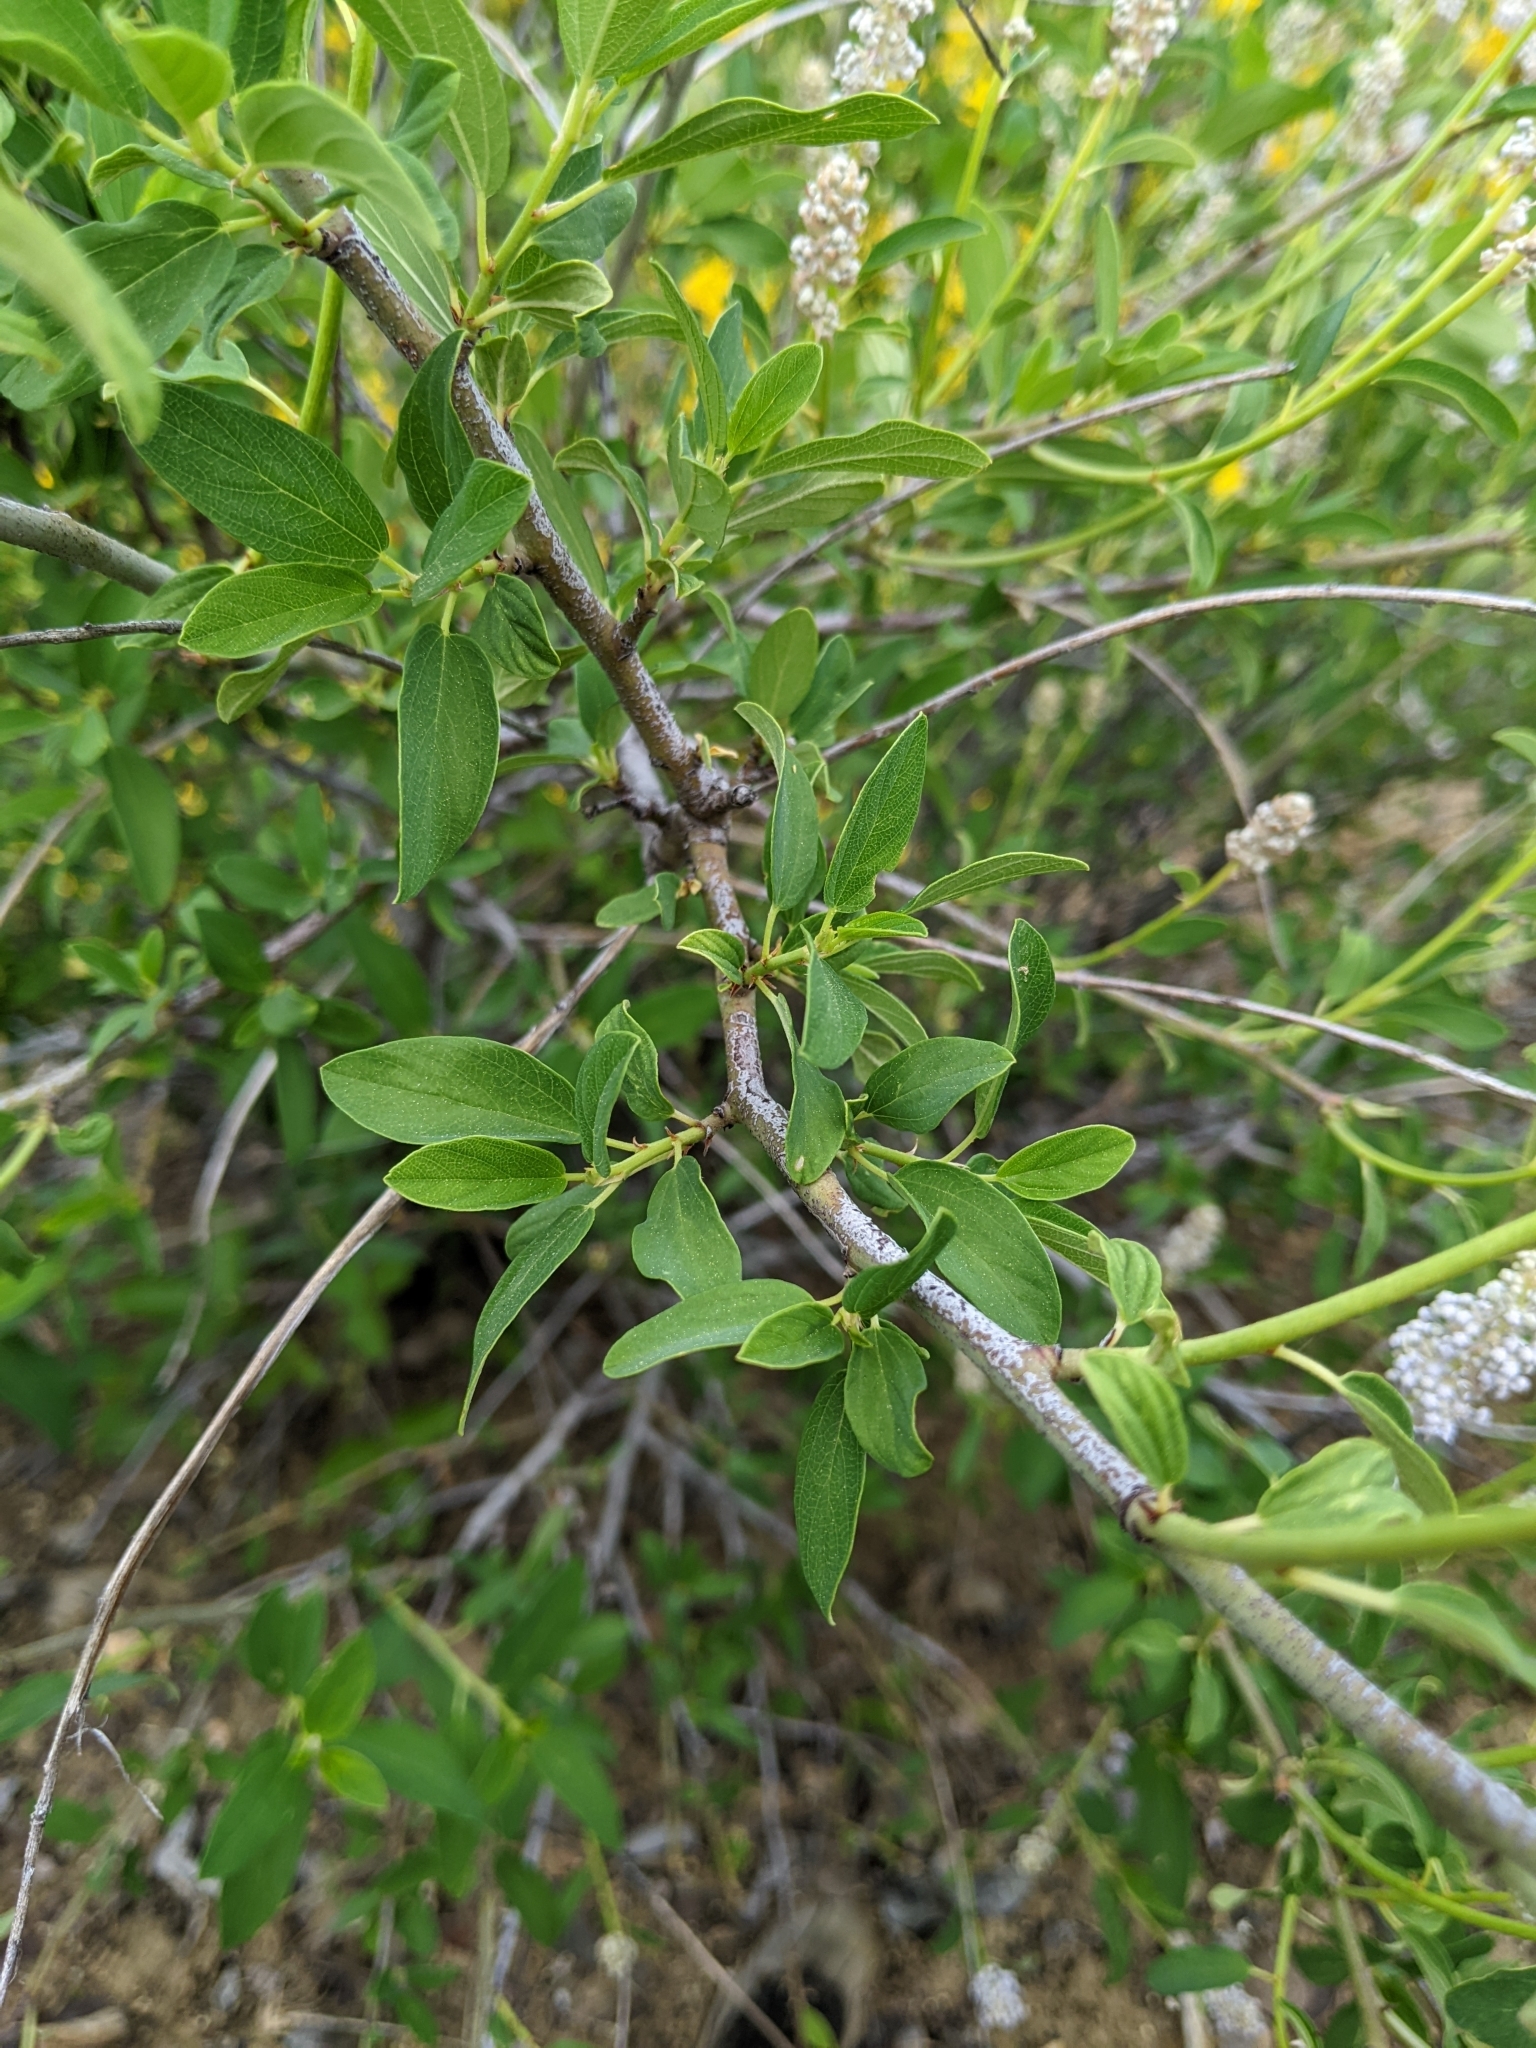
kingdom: Plantae
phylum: Tracheophyta
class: Magnoliopsida
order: Rosales
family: Rhamnaceae
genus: Ceanothus
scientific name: Ceanothus integerrimus
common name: Deerbrush ceanothus
